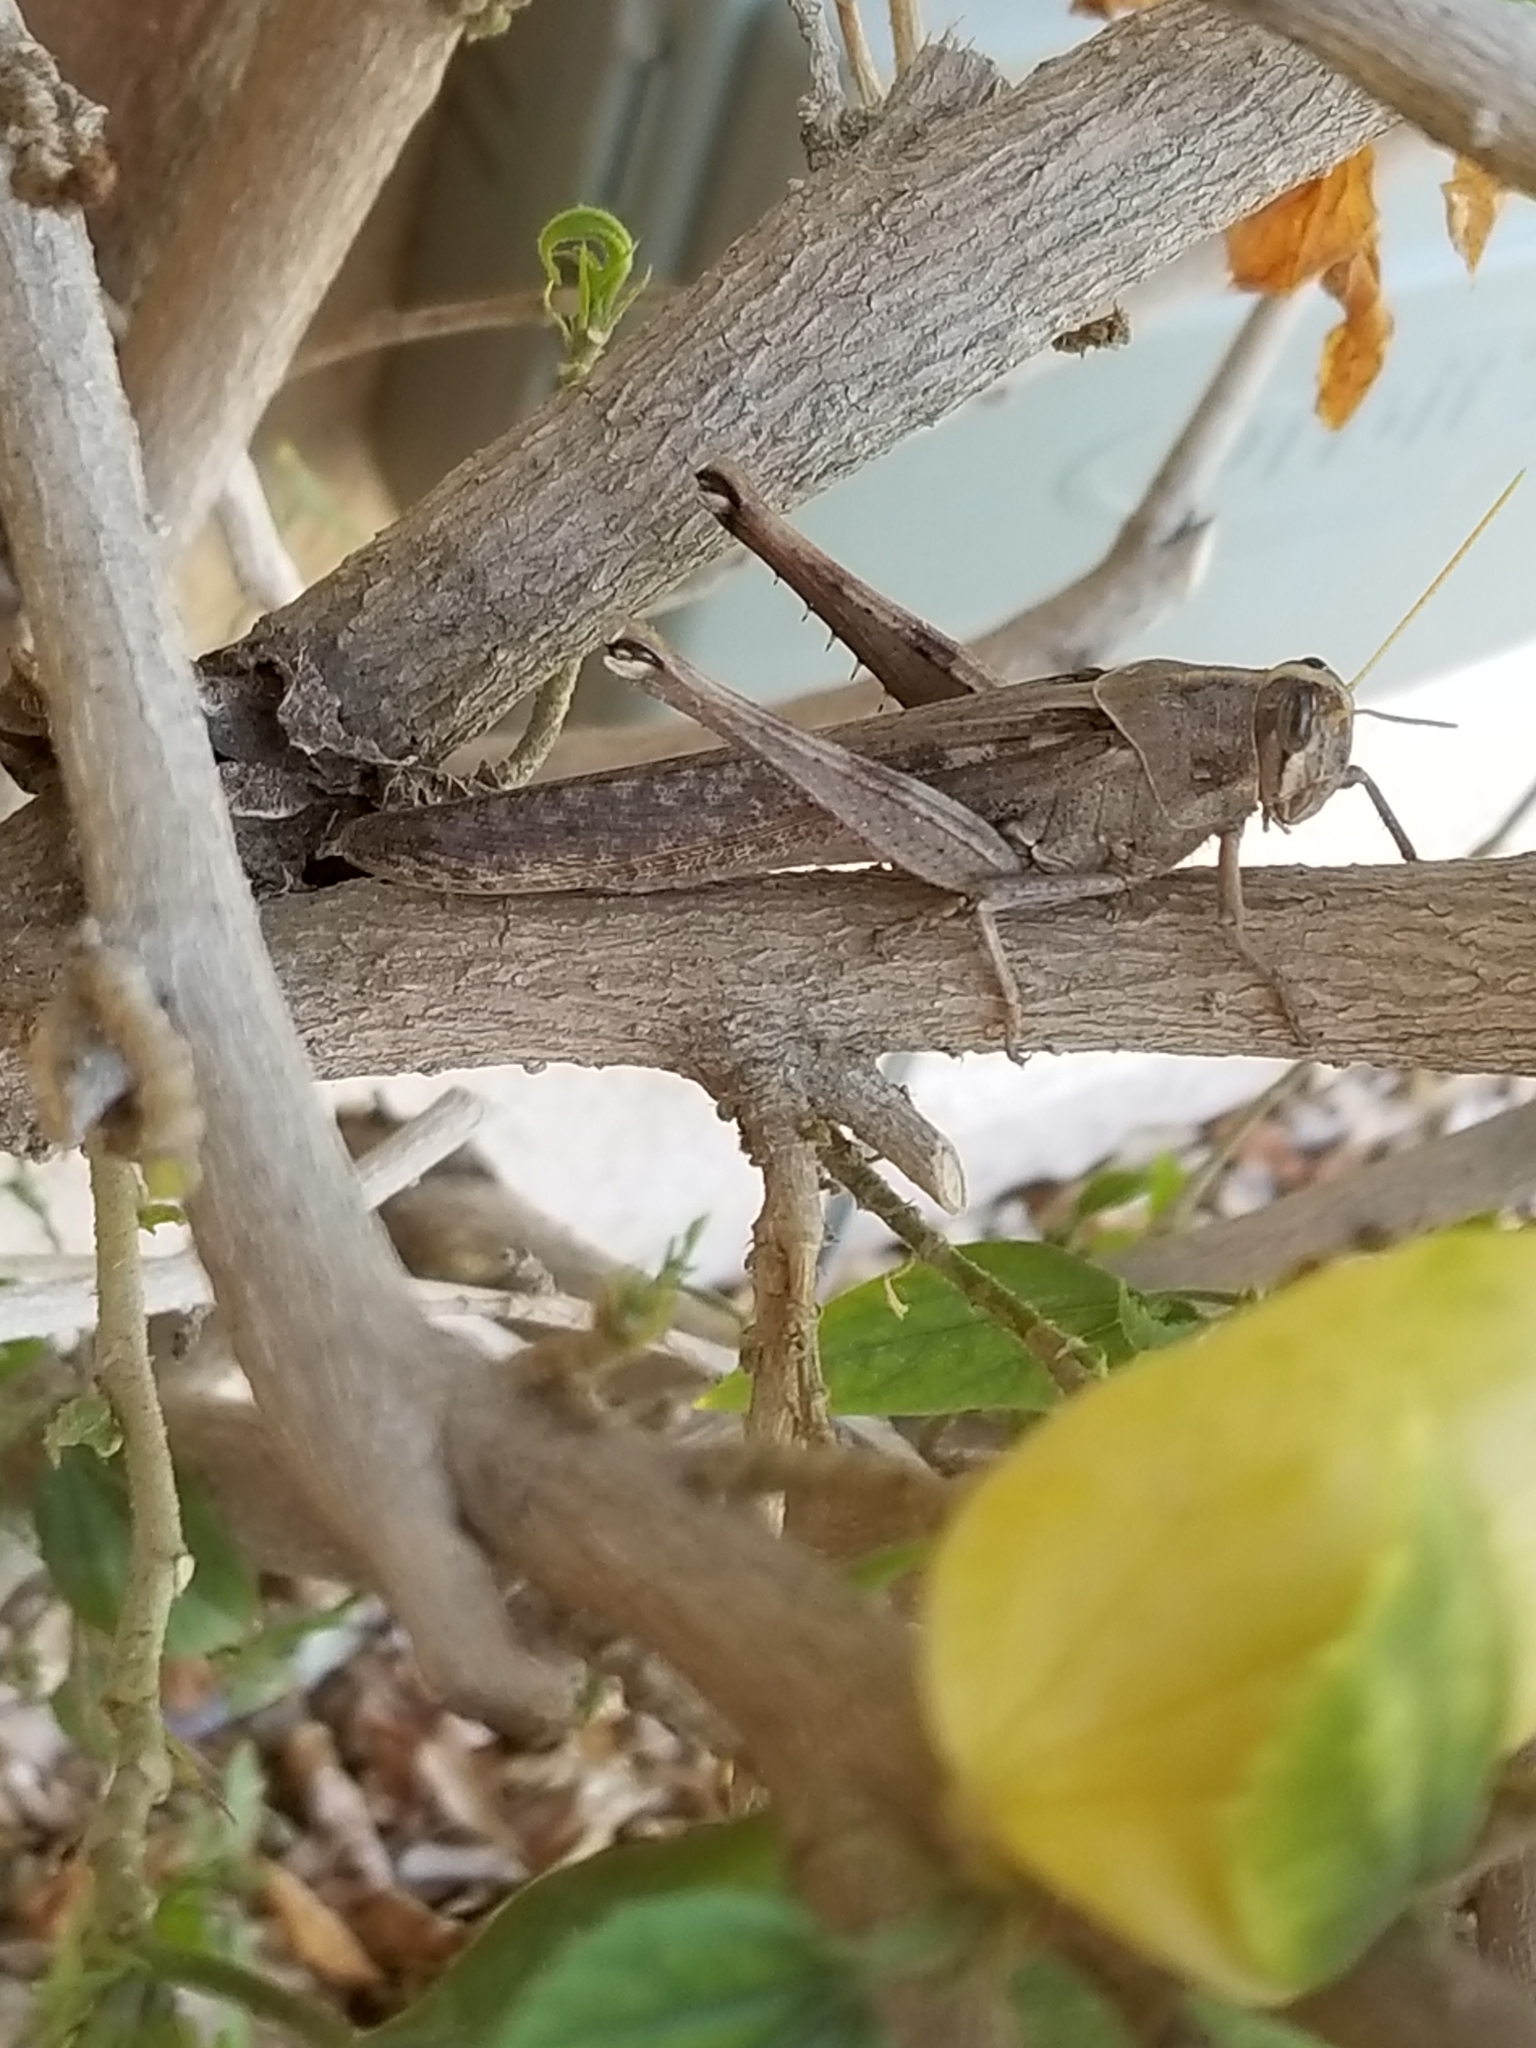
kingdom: Animalia
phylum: Arthropoda
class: Insecta
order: Orthoptera
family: Acrididae
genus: Schistocerca
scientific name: Schistocerca nitens
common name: Vagrant grasshopper
